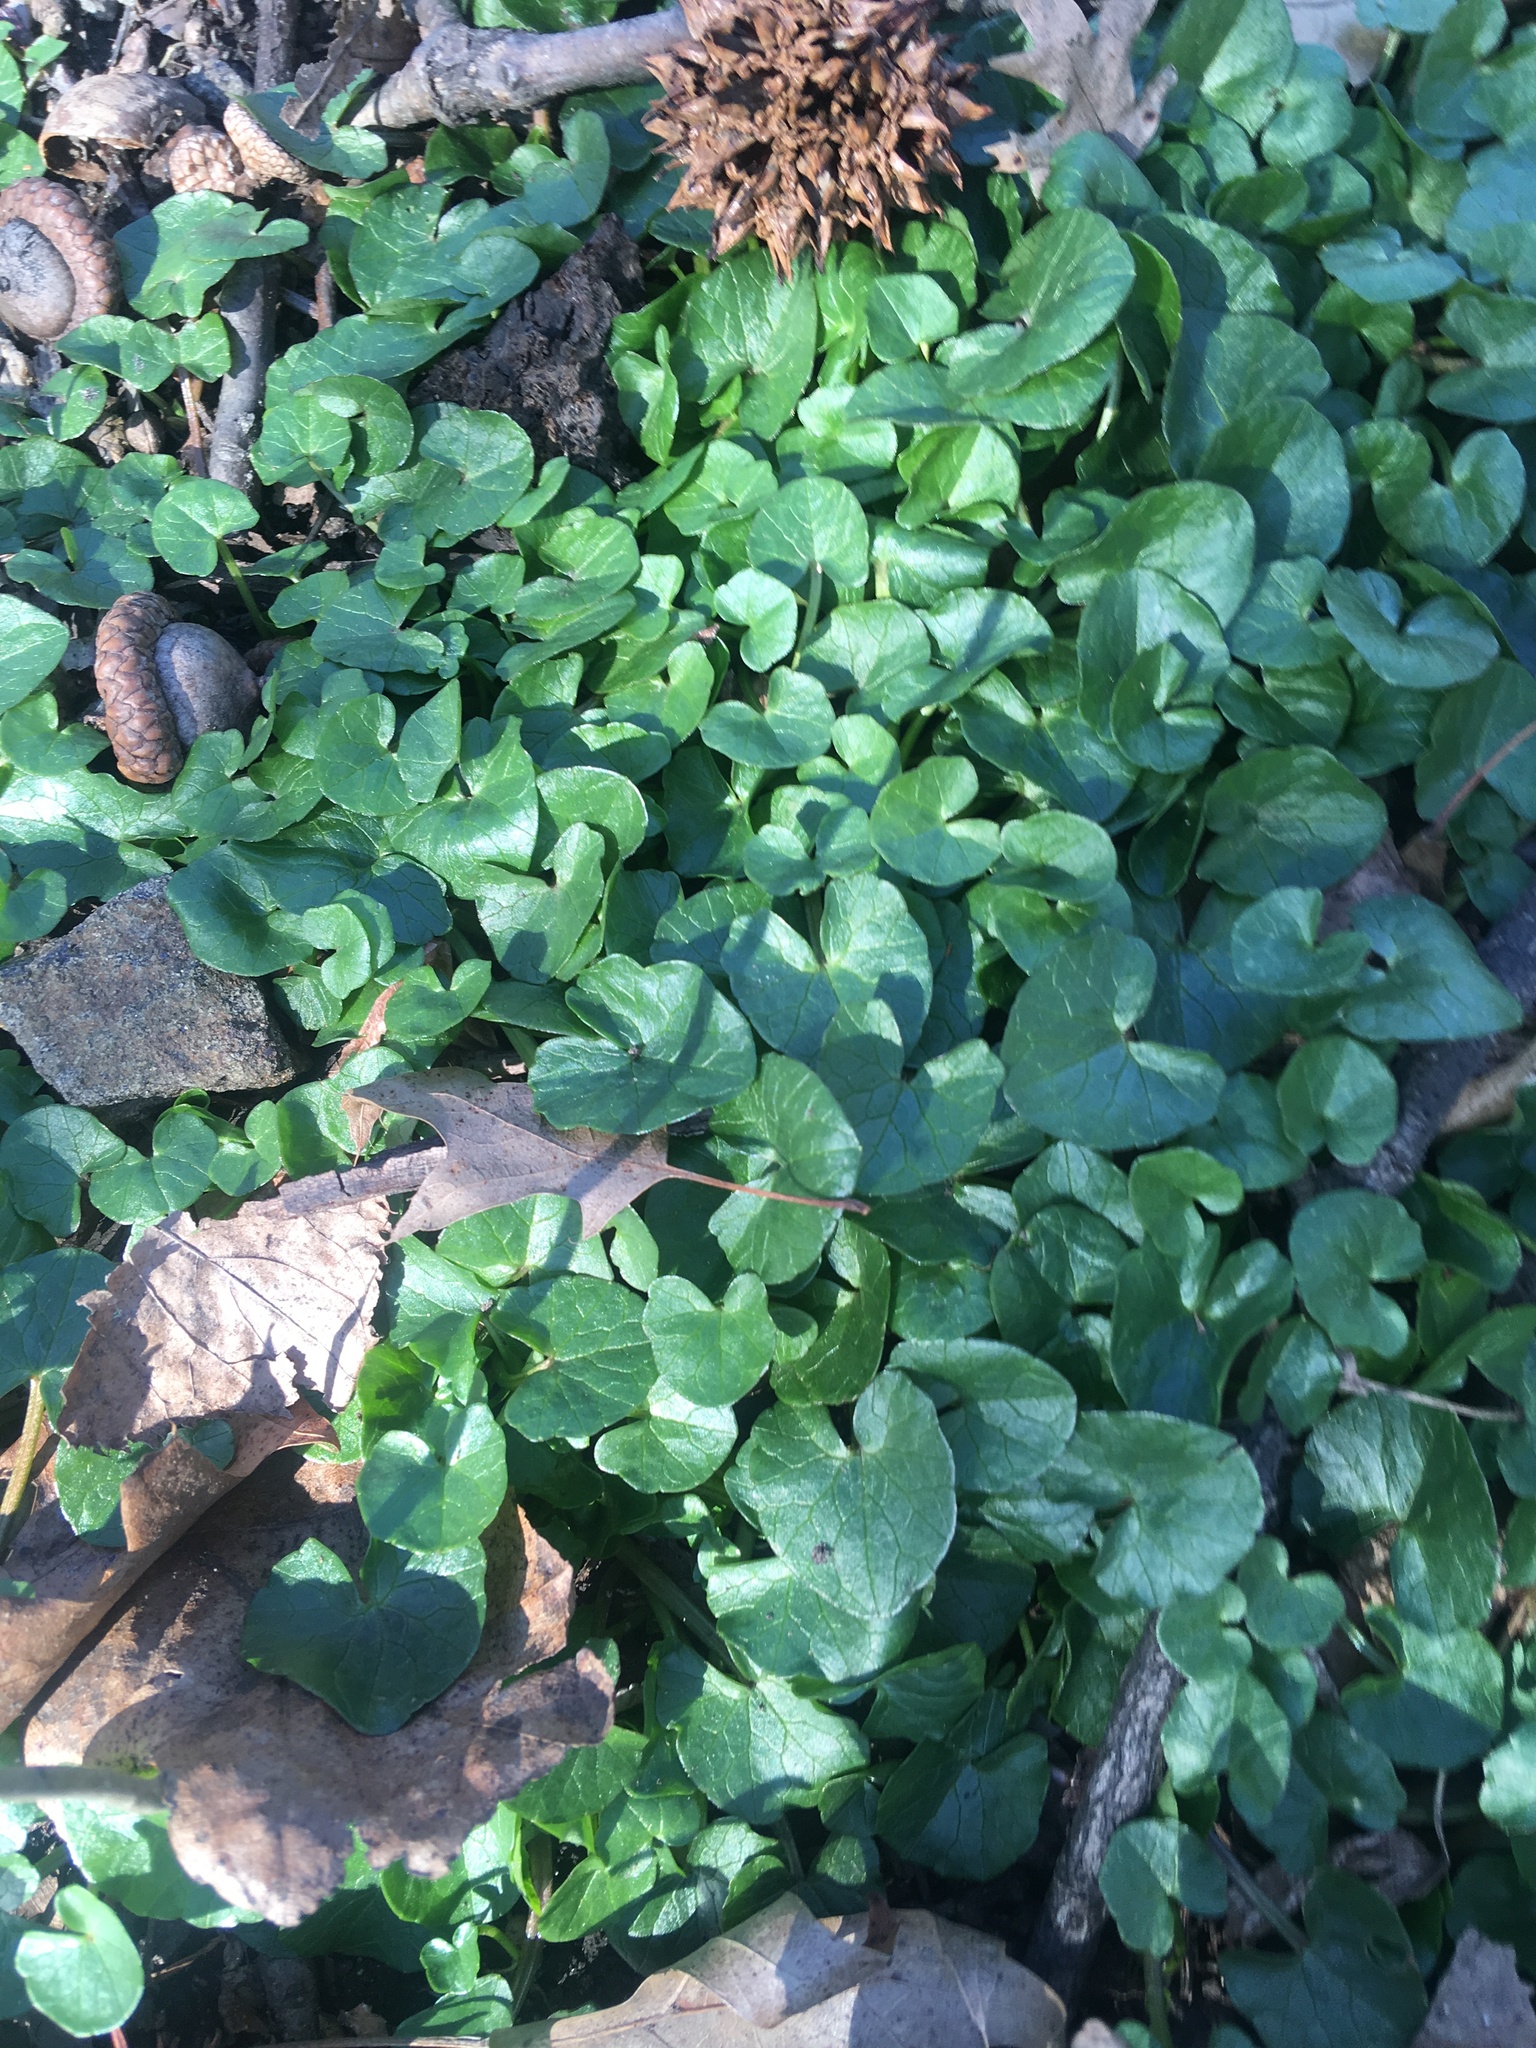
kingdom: Plantae
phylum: Tracheophyta
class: Magnoliopsida
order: Ranunculales
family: Ranunculaceae
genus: Ficaria
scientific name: Ficaria verna
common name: Lesser celandine
